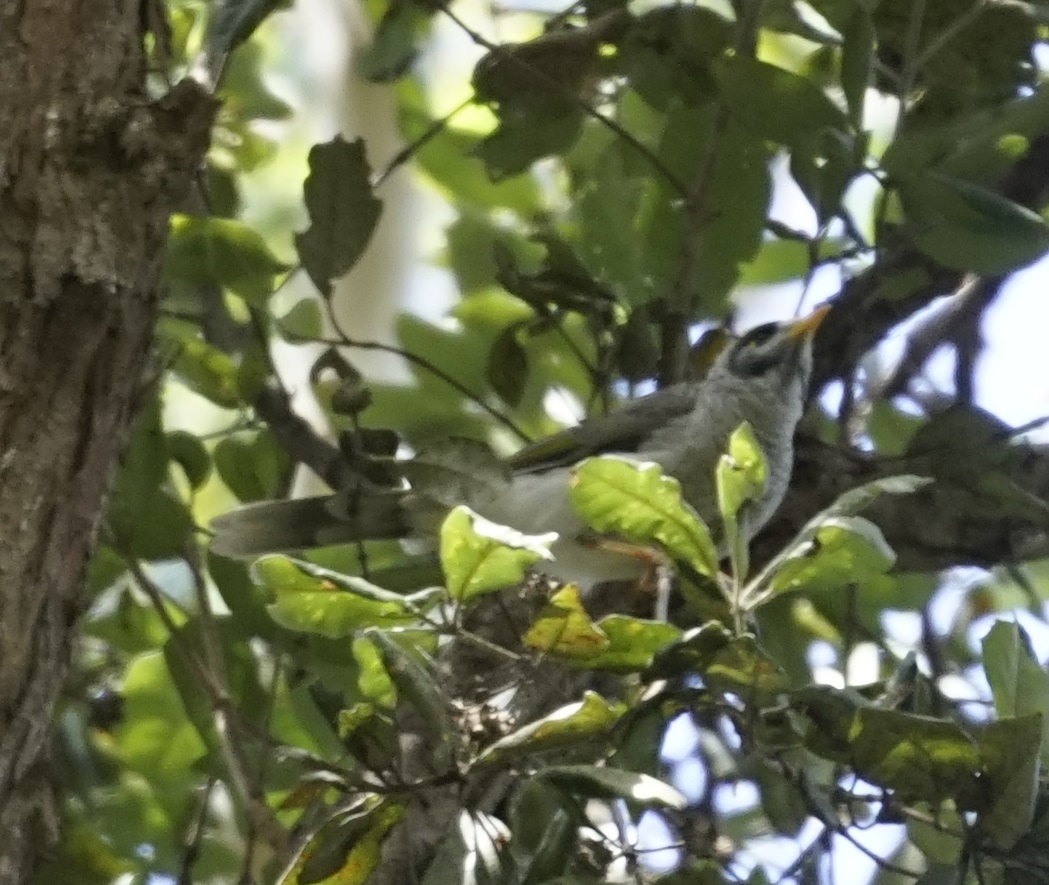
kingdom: Animalia
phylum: Chordata
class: Aves
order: Passeriformes
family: Meliphagidae
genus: Manorina
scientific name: Manorina melanocephala
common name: Noisy miner
